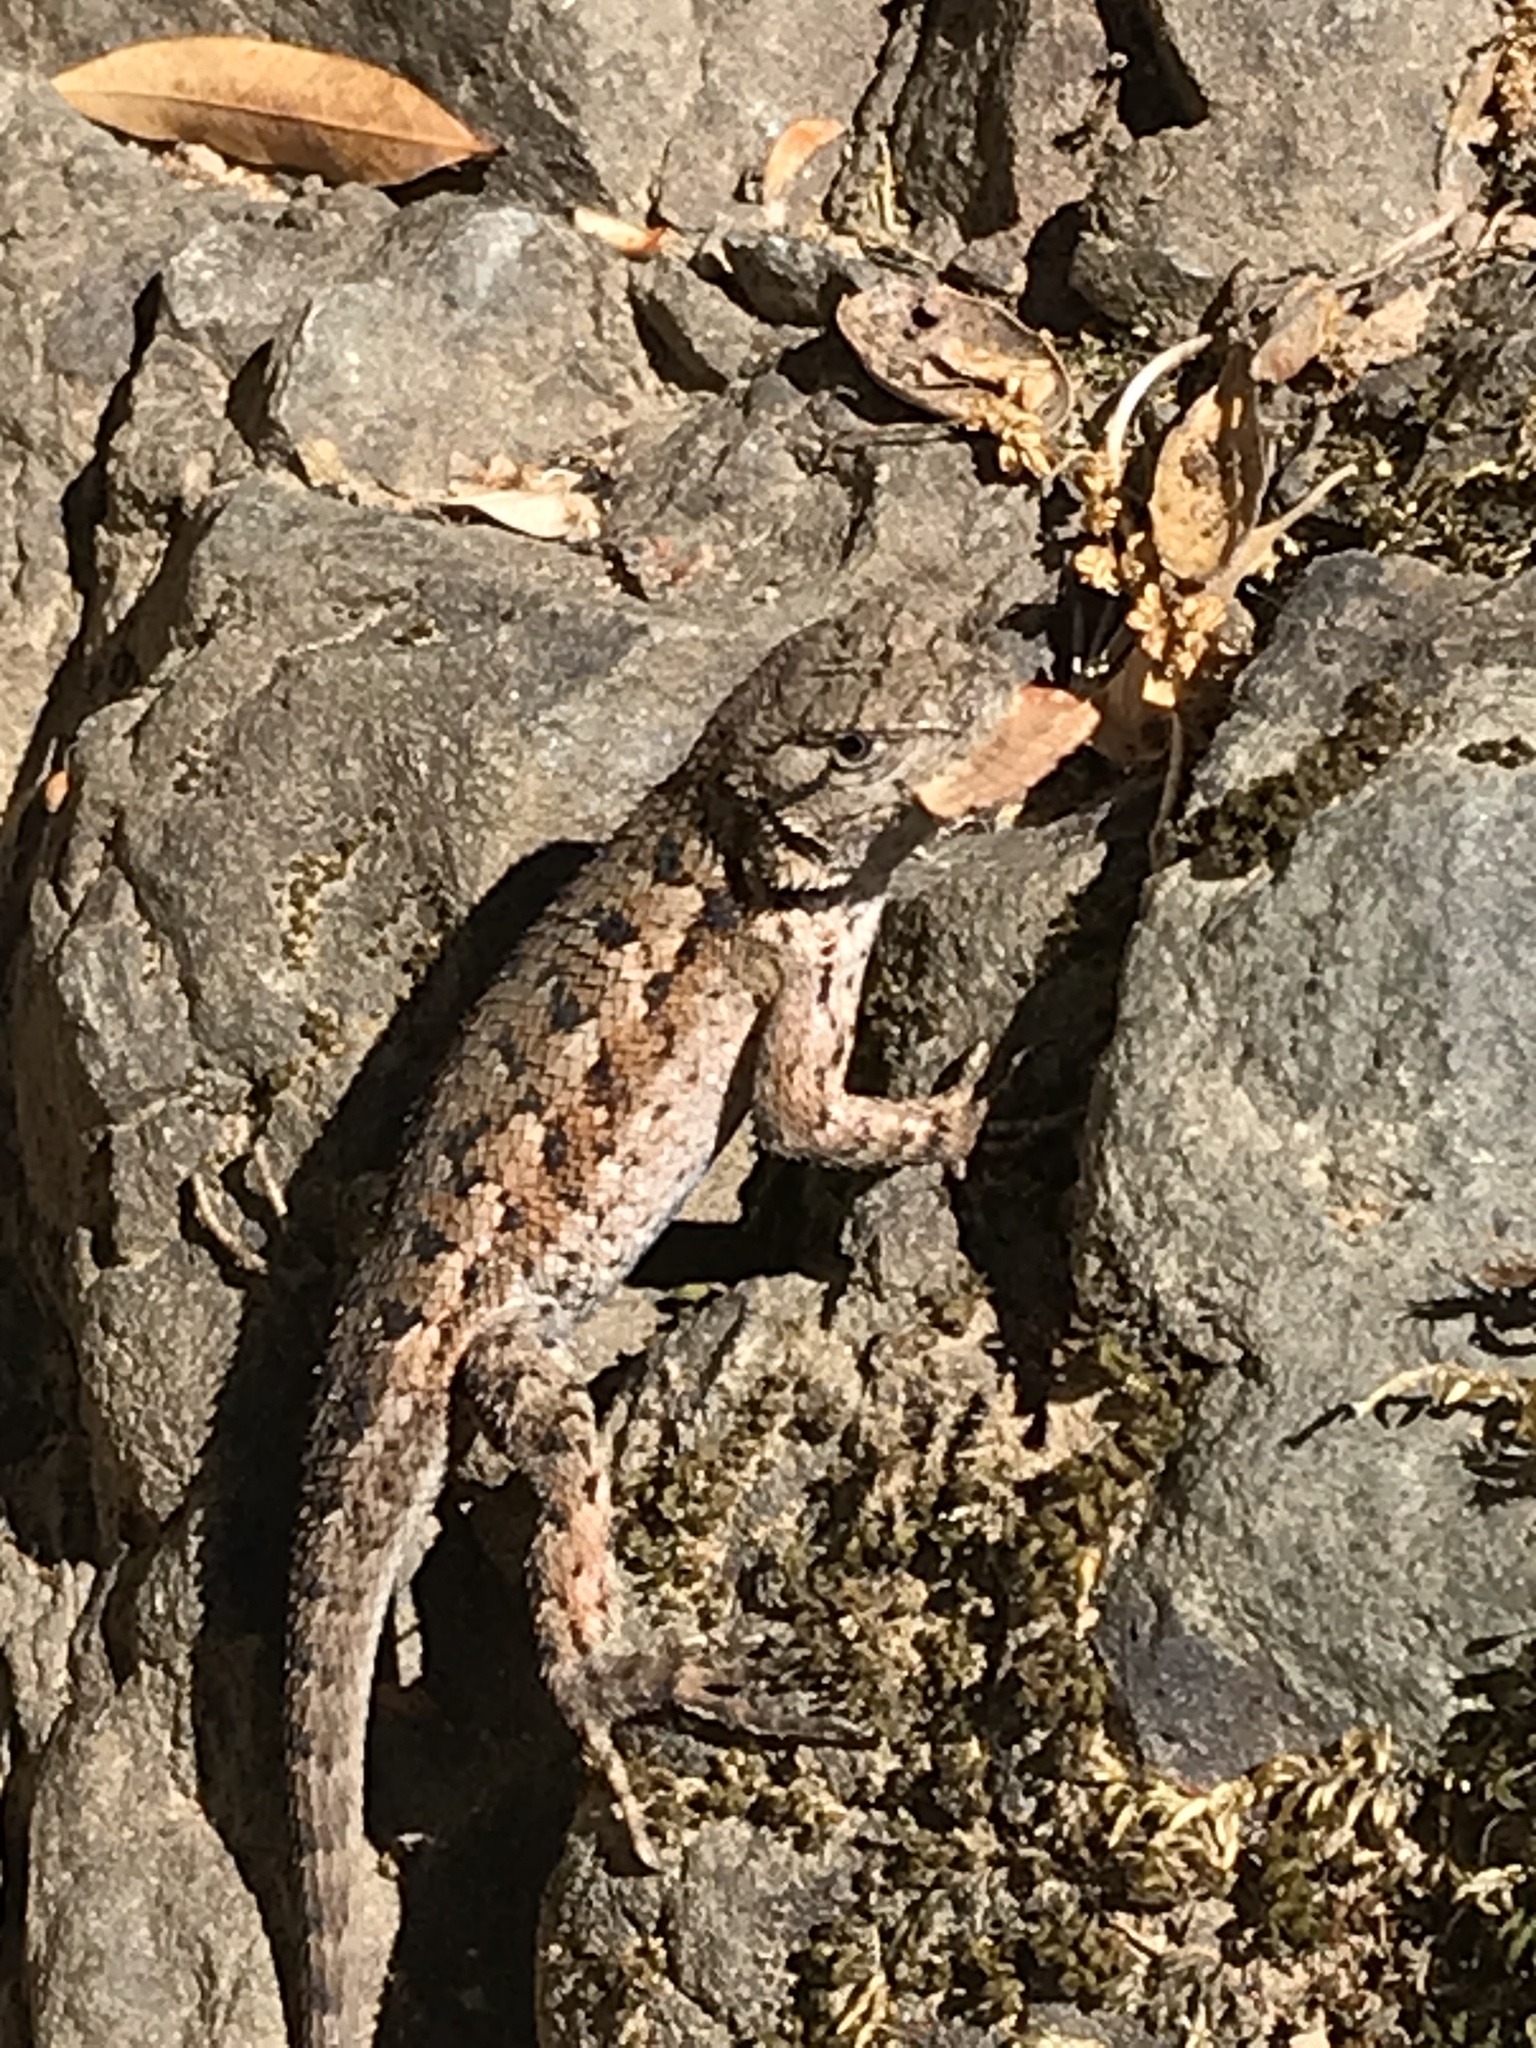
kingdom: Animalia
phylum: Chordata
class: Squamata
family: Phrynosomatidae
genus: Sceloporus
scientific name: Sceloporus occidentalis
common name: Western fence lizard
